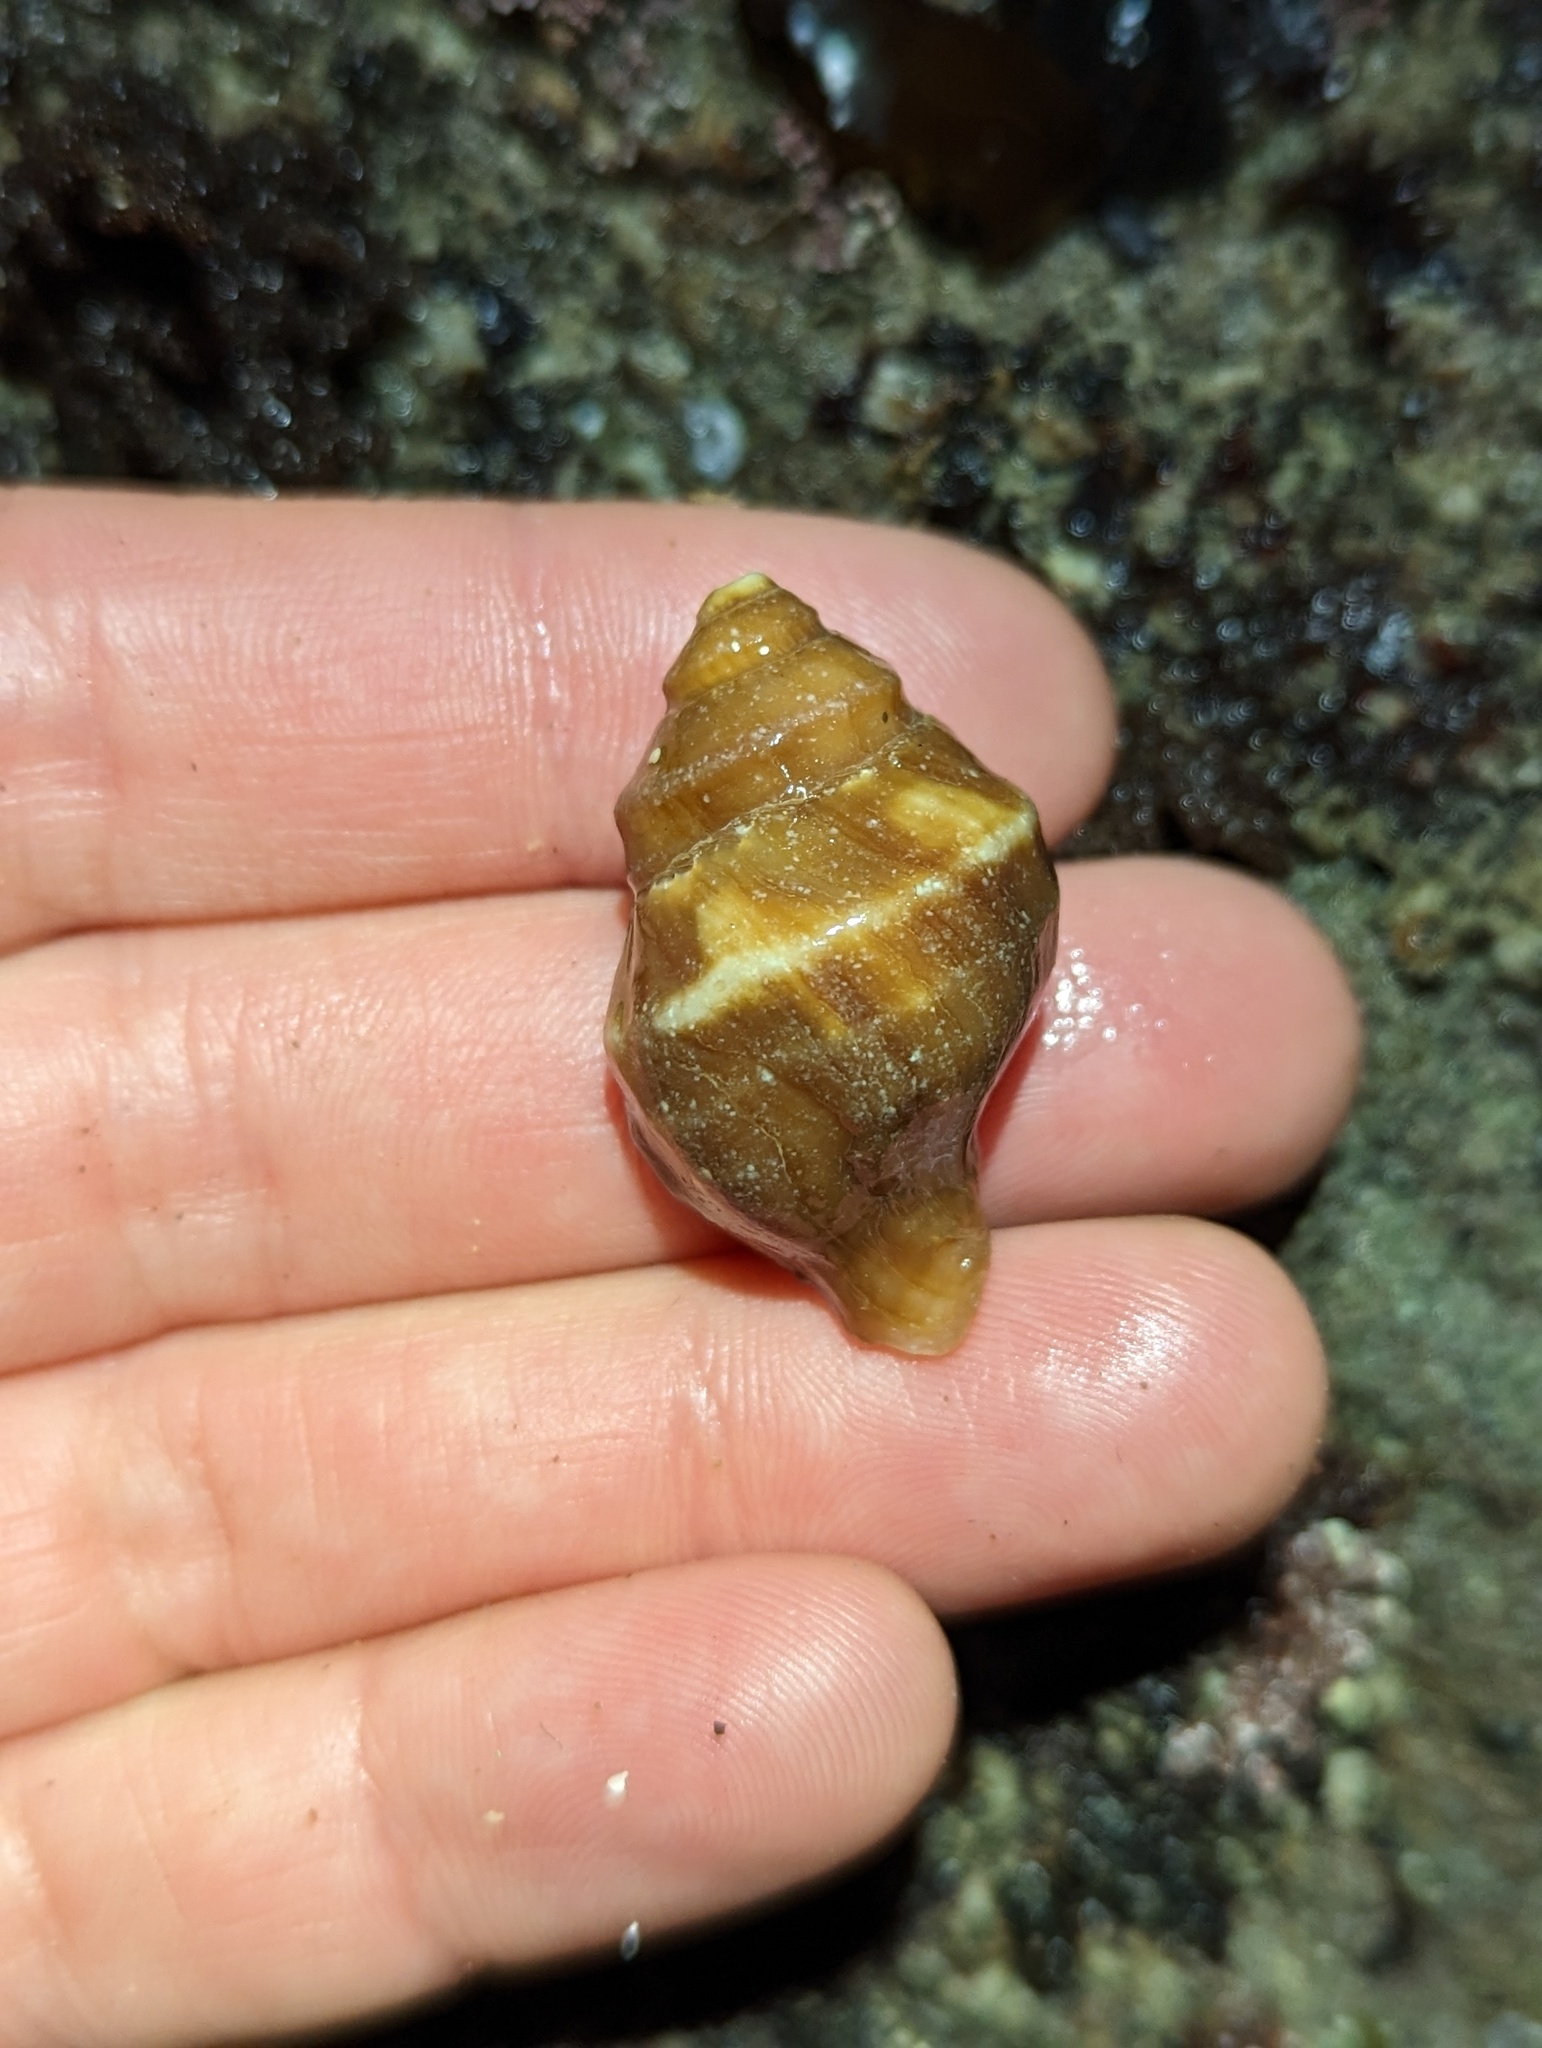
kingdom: Animalia
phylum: Mollusca
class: Gastropoda
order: Neogastropoda
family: Muricidae
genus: Nucella
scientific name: Nucella lamellosa
